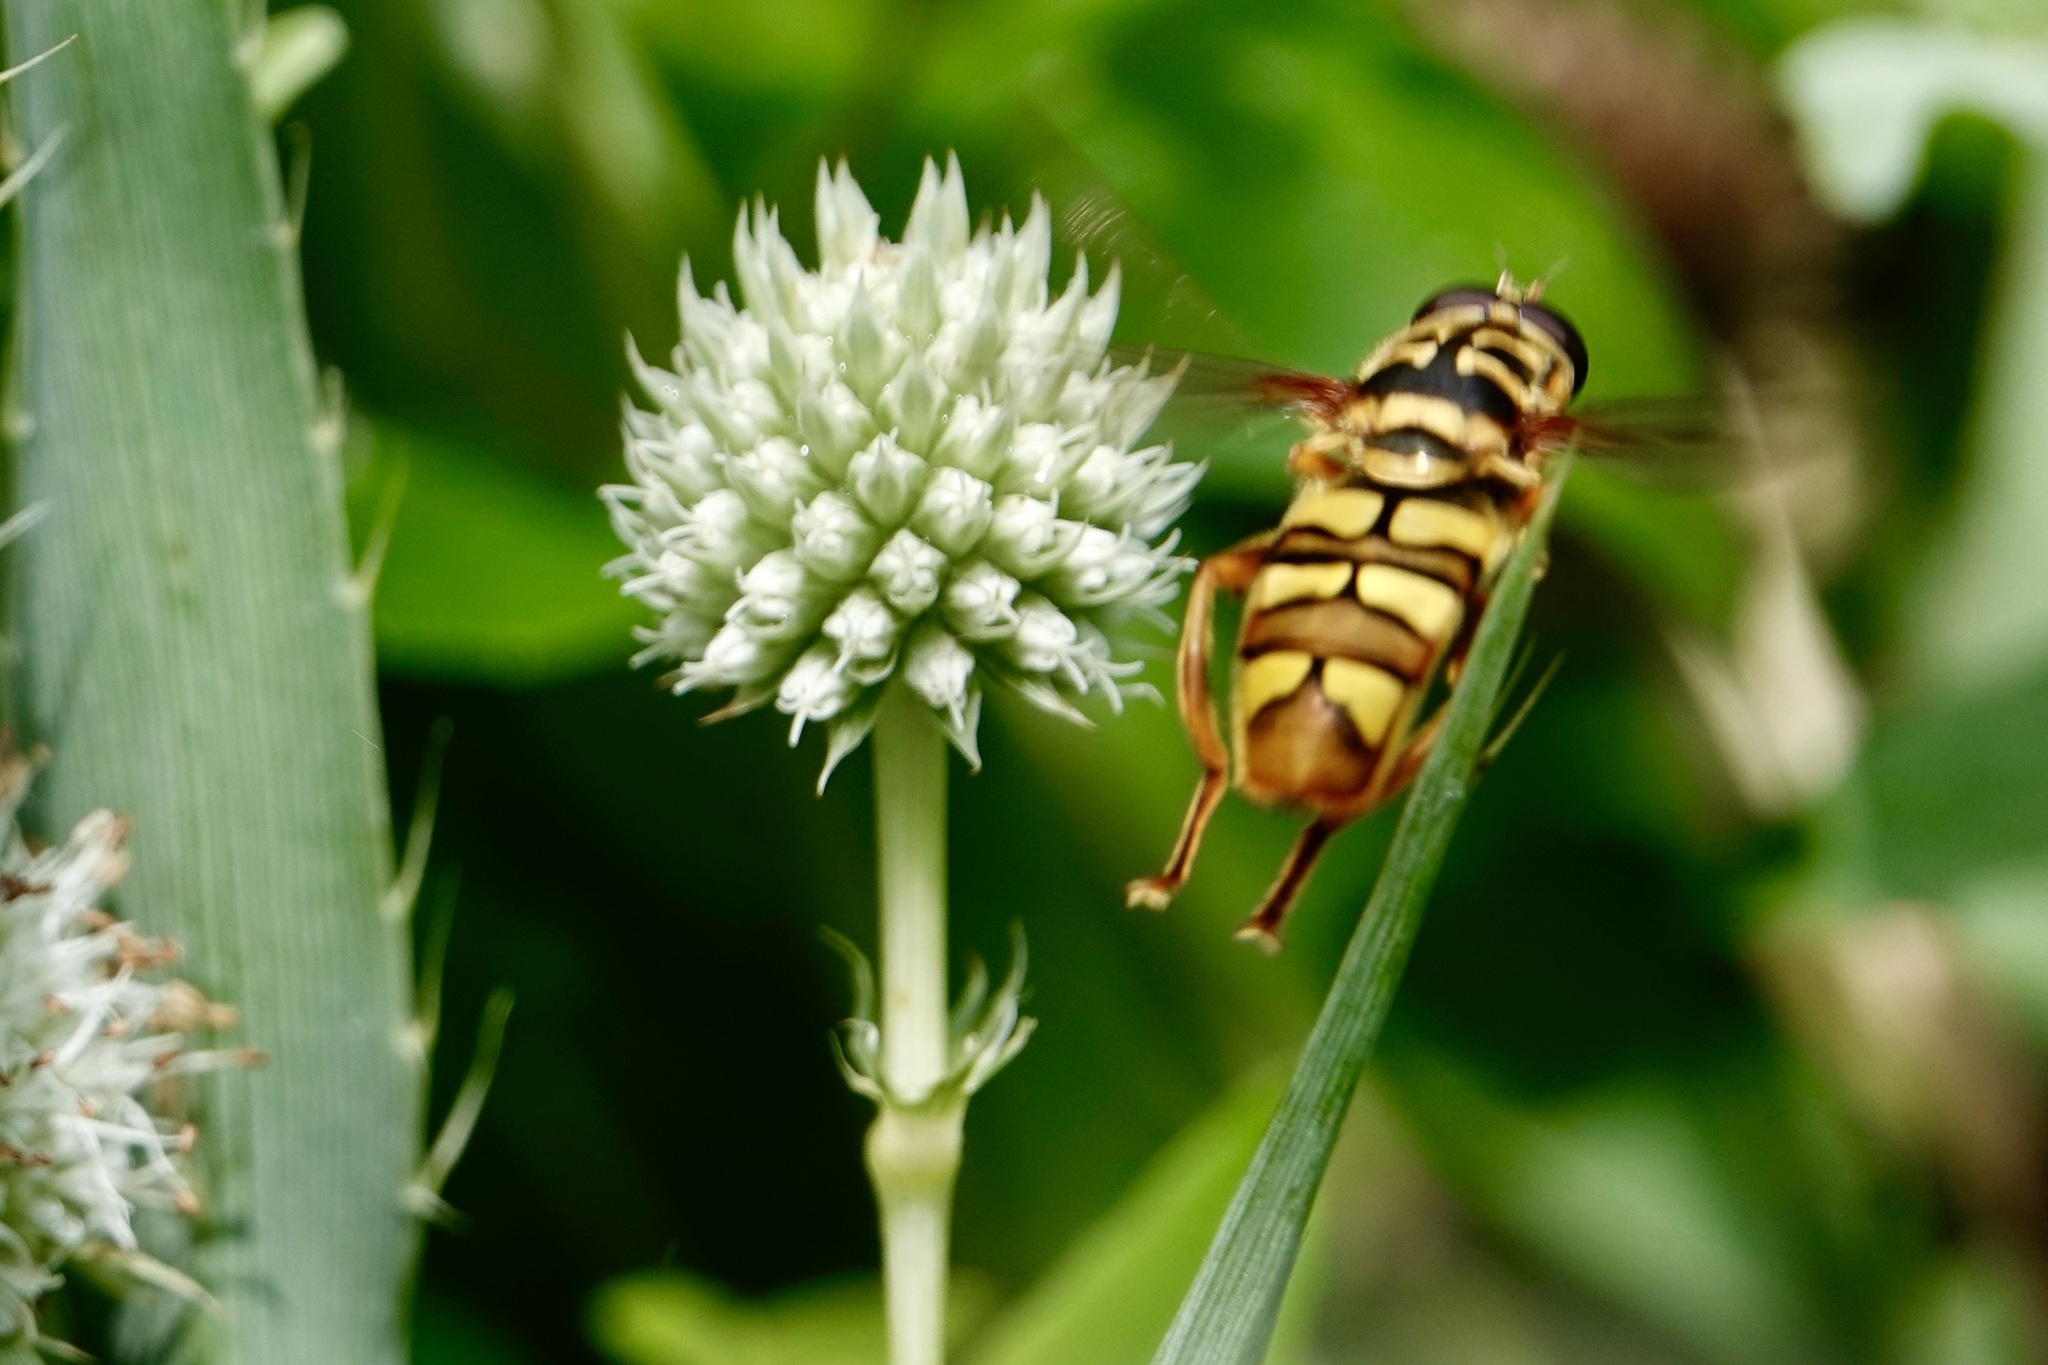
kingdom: Animalia
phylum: Arthropoda
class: Insecta
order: Diptera
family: Syrphidae
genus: Milesia
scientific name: Milesia virginiensis
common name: Virginia giant
